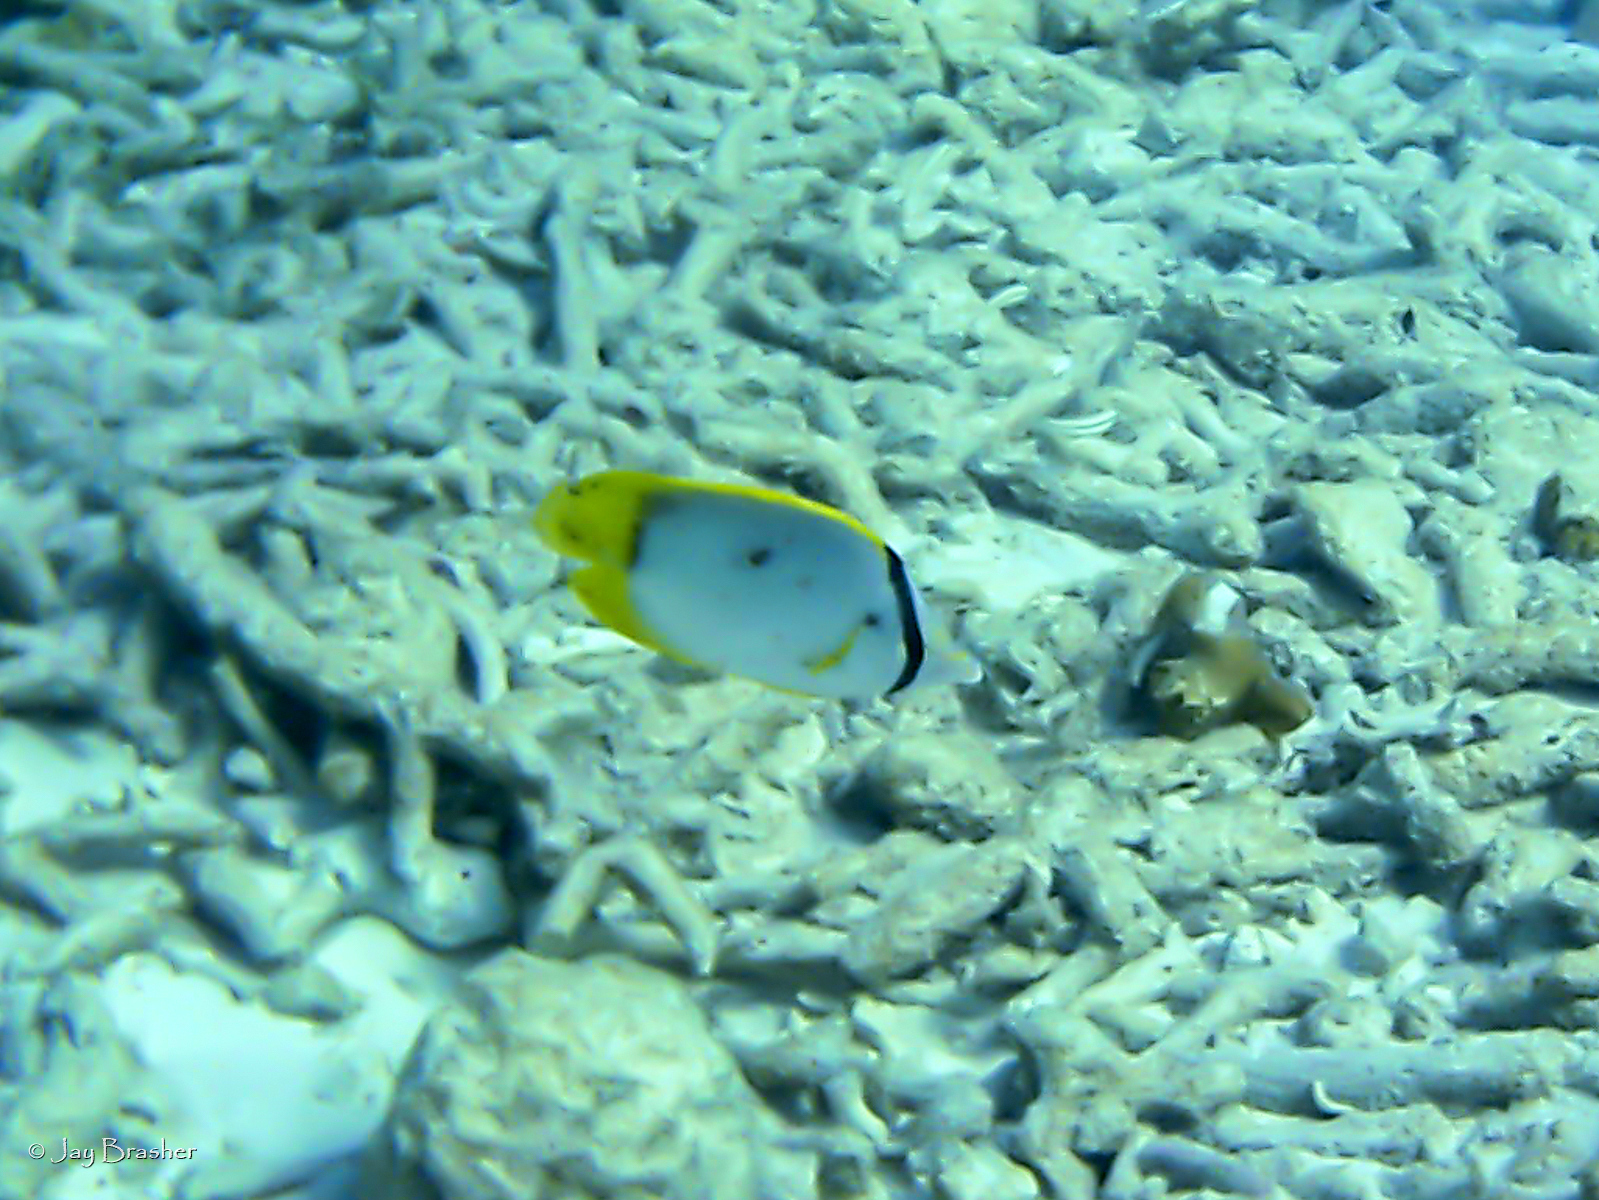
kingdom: Animalia
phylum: Chordata
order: Perciformes
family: Chaetodontidae
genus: Chaetodon
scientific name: Chaetodon ocellatus
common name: Spotfin butterflyfish
